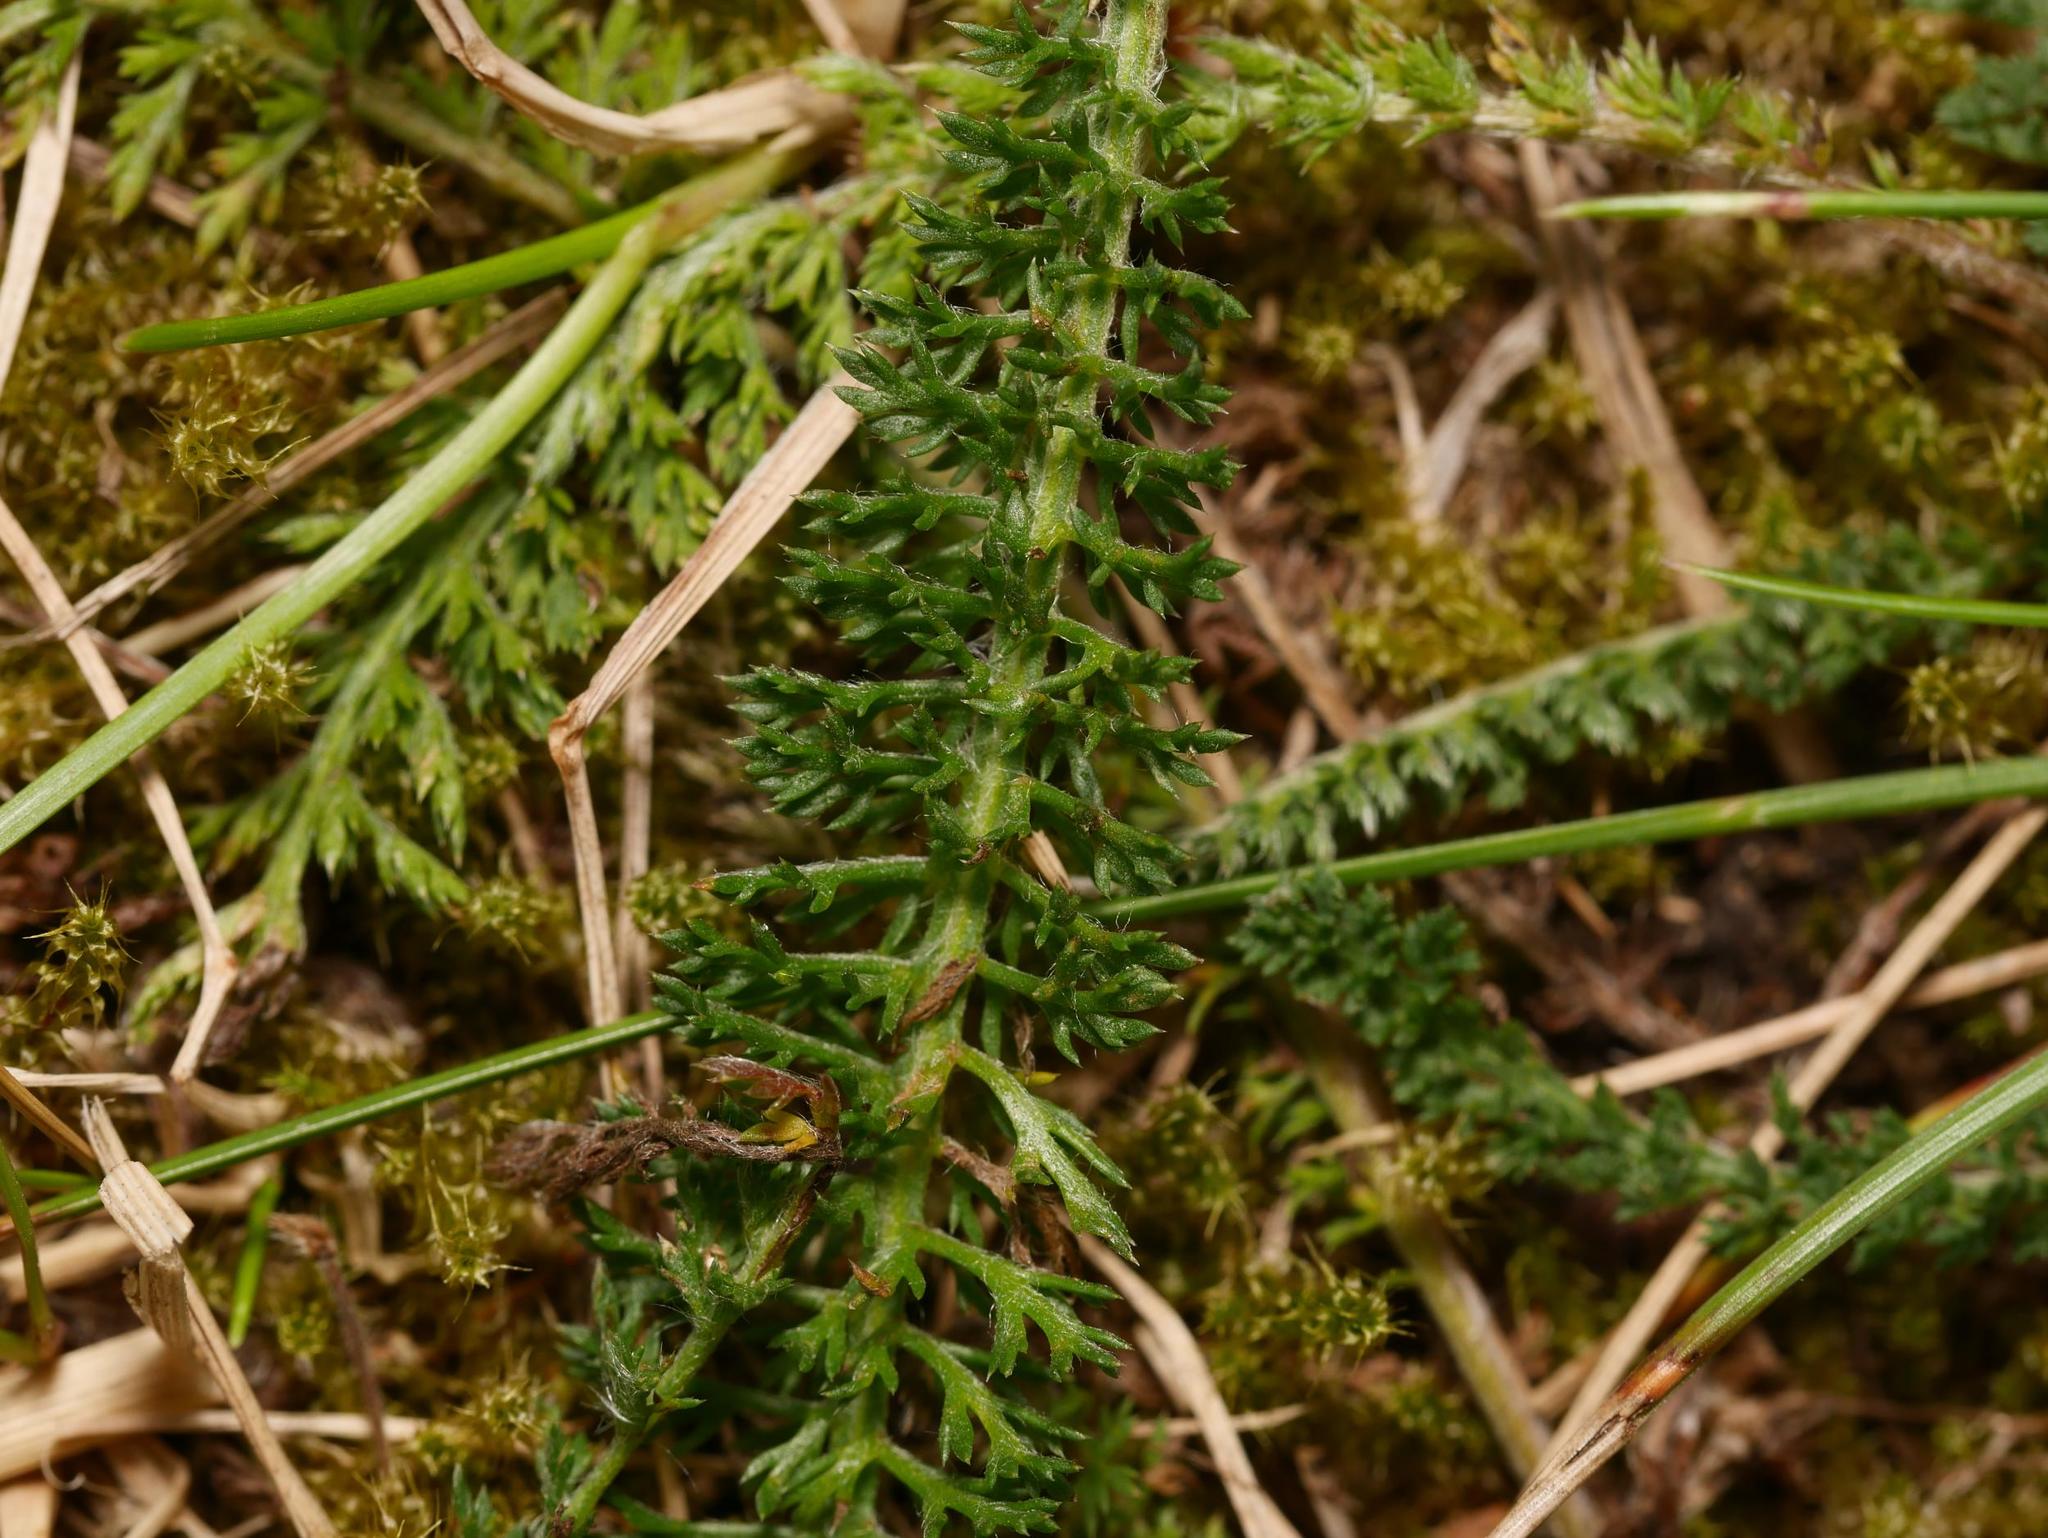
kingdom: Plantae
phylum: Tracheophyta
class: Magnoliopsida
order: Asterales
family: Asteraceae
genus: Achillea
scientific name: Achillea millefolium
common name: Yarrow
